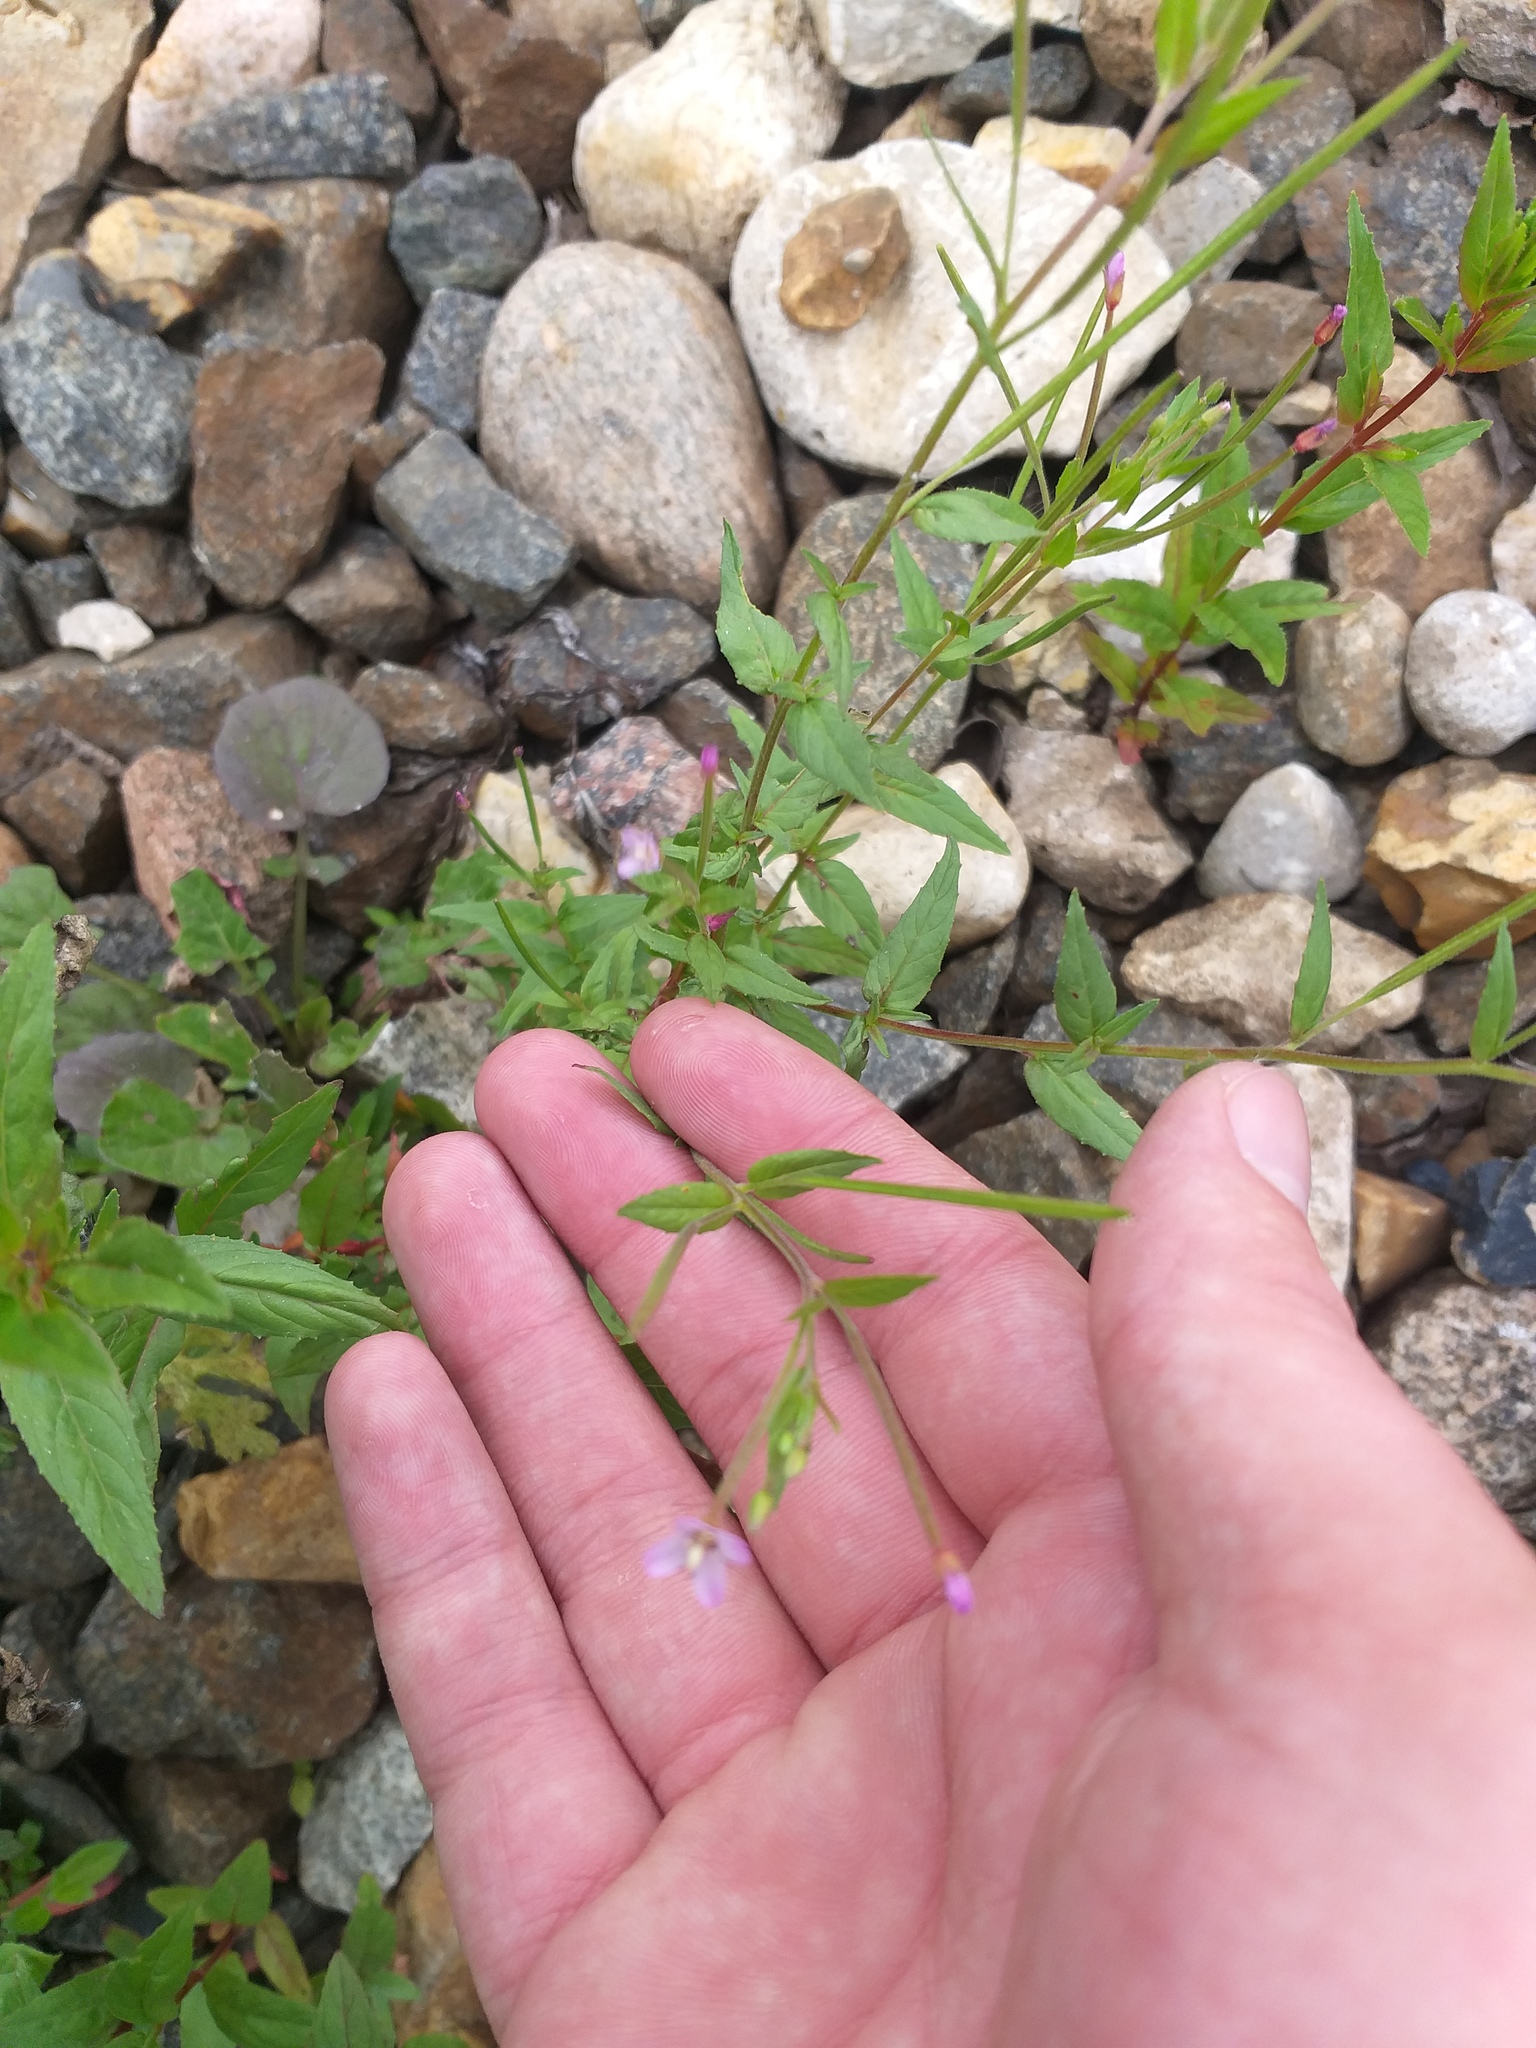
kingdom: Plantae
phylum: Tracheophyta
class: Magnoliopsida
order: Myrtales
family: Onagraceae
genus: Epilobium
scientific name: Epilobium ciliatum
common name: American willowherb
